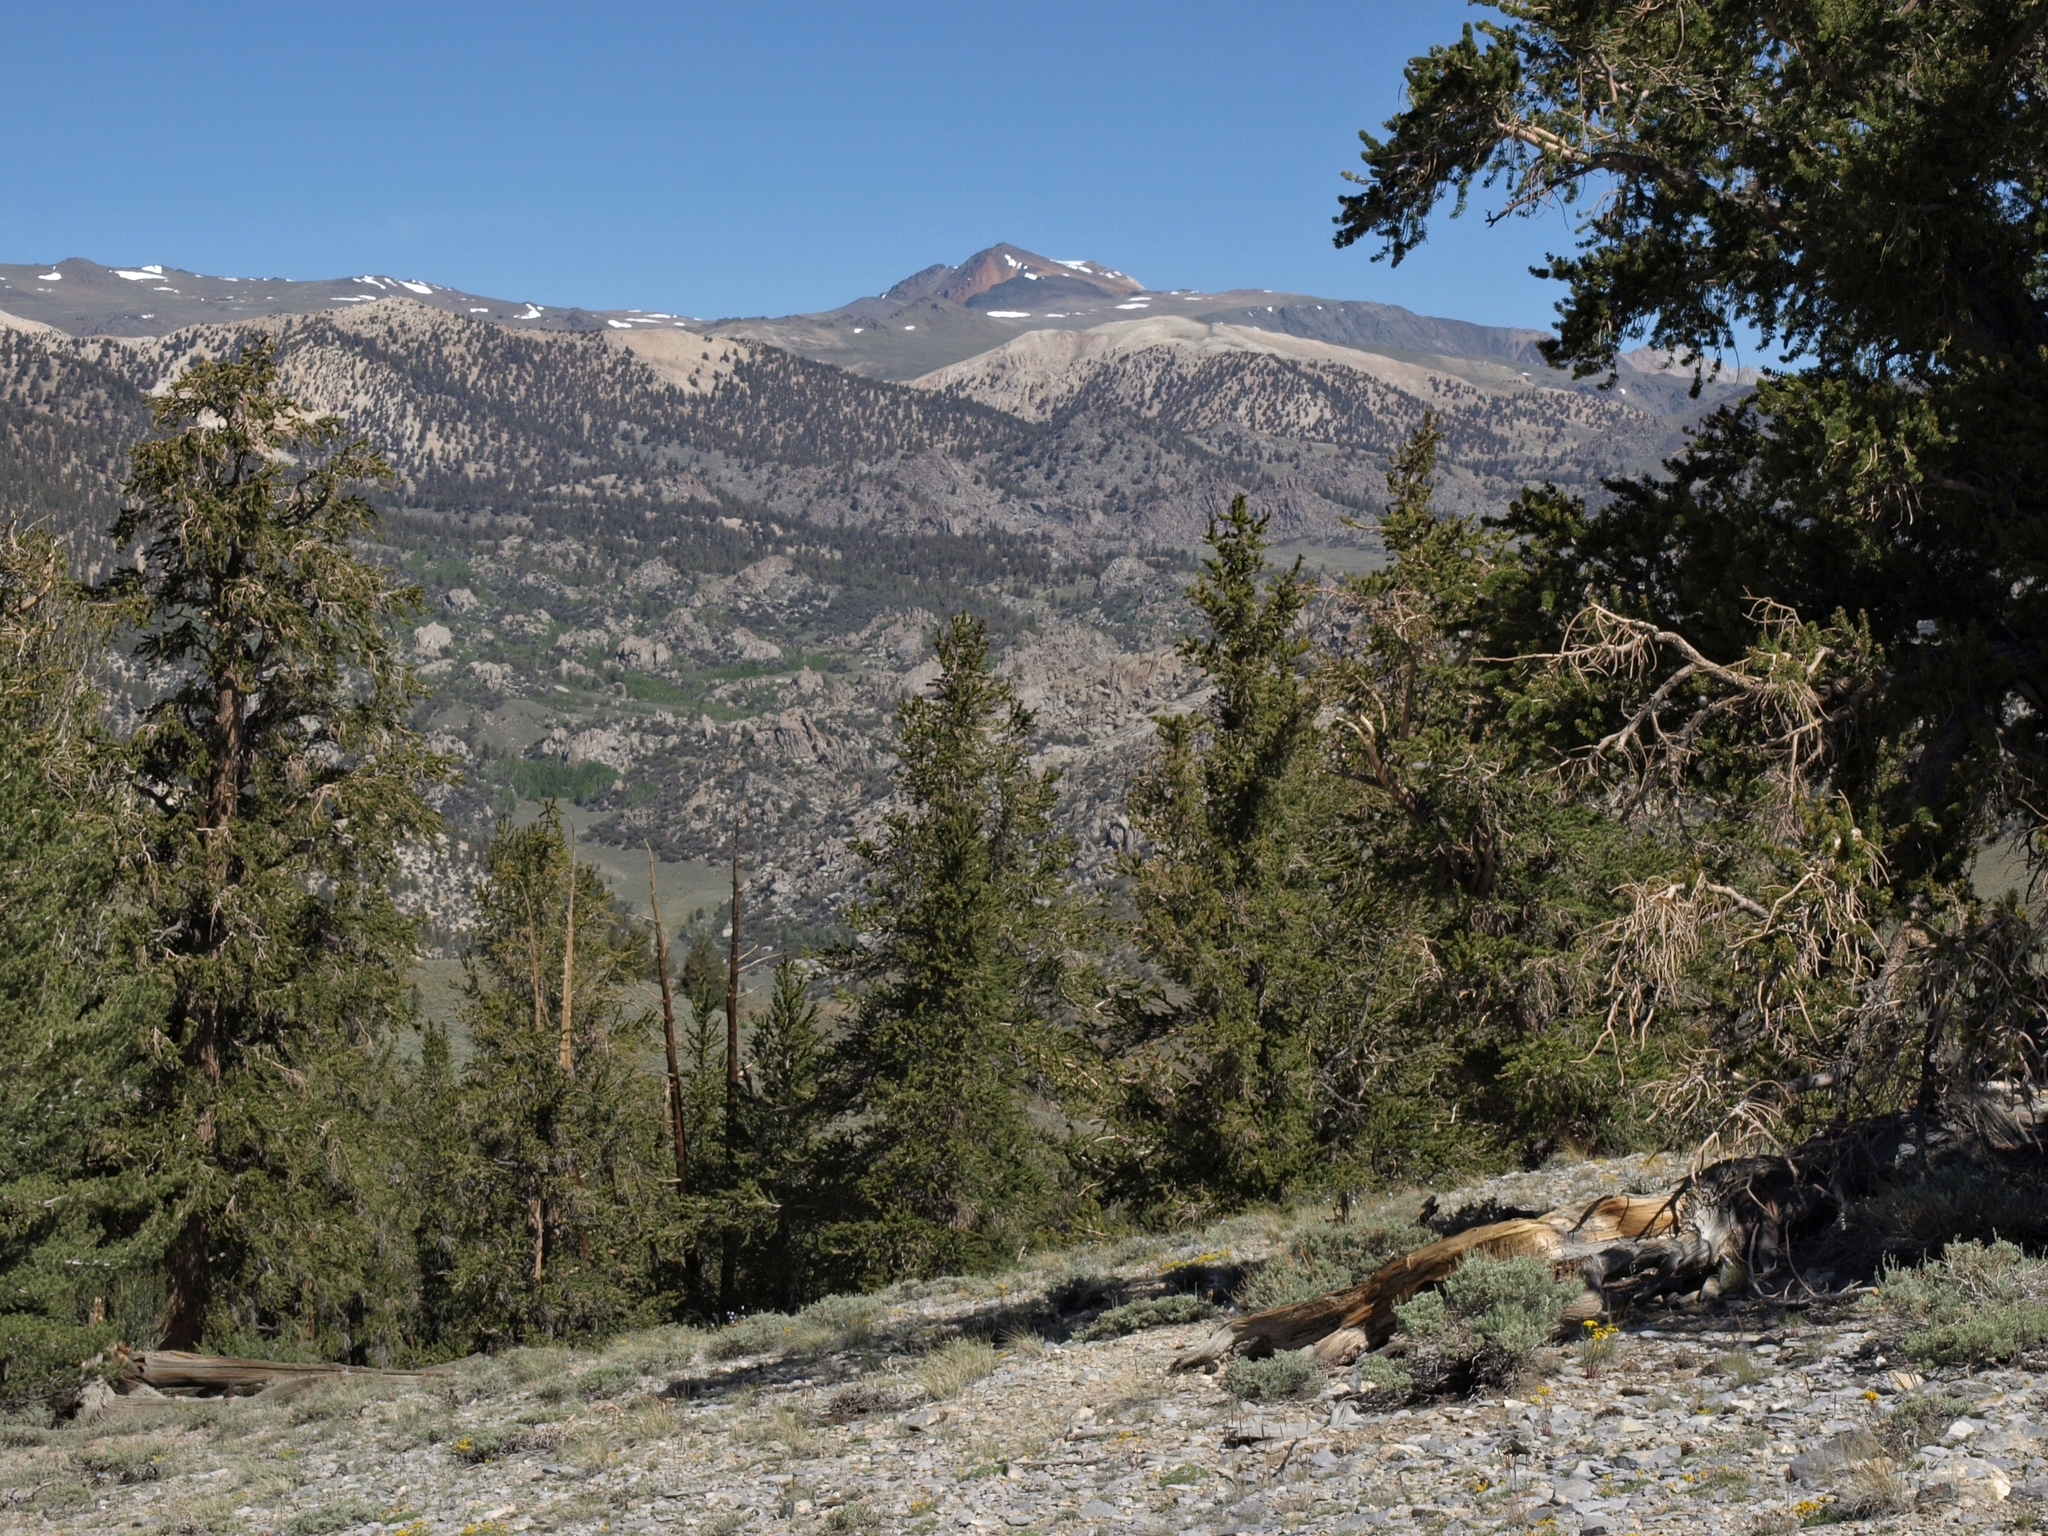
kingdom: Plantae
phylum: Tracheophyta
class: Pinopsida
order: Pinales
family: Pinaceae
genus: Pinus
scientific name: Pinus longaeva
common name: Intermountain bristlecone pine
